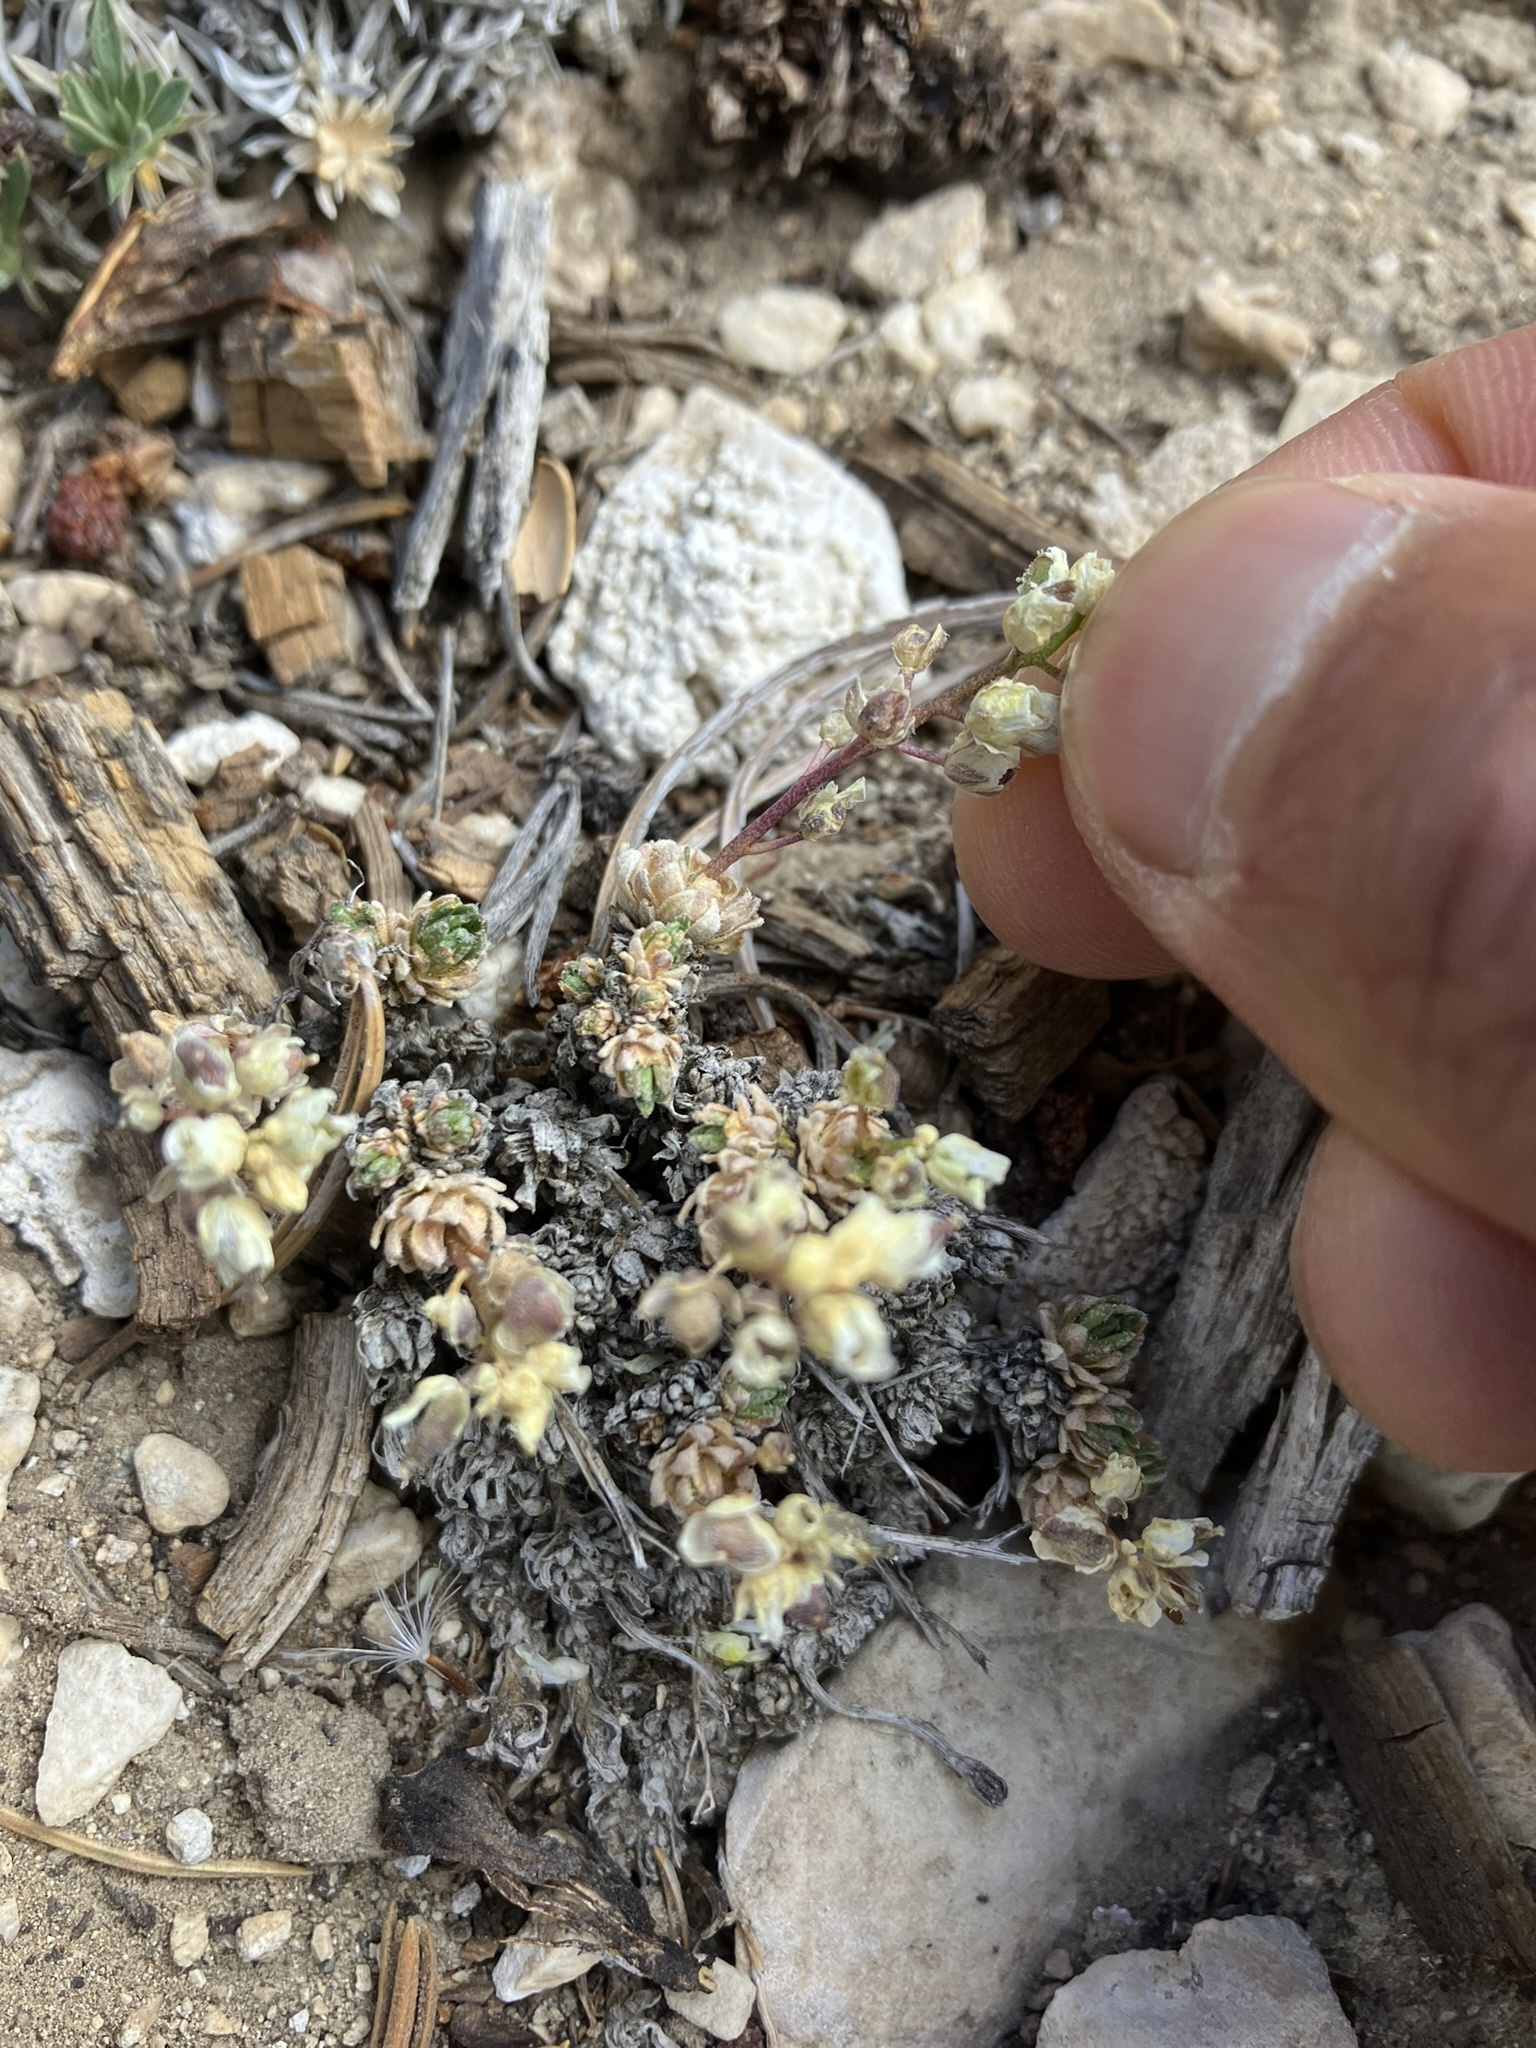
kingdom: Plantae
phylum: Tracheophyta
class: Magnoliopsida
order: Brassicales
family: Brassicaceae
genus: Draba
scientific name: Draba oligosperma
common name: Few-seed draba
